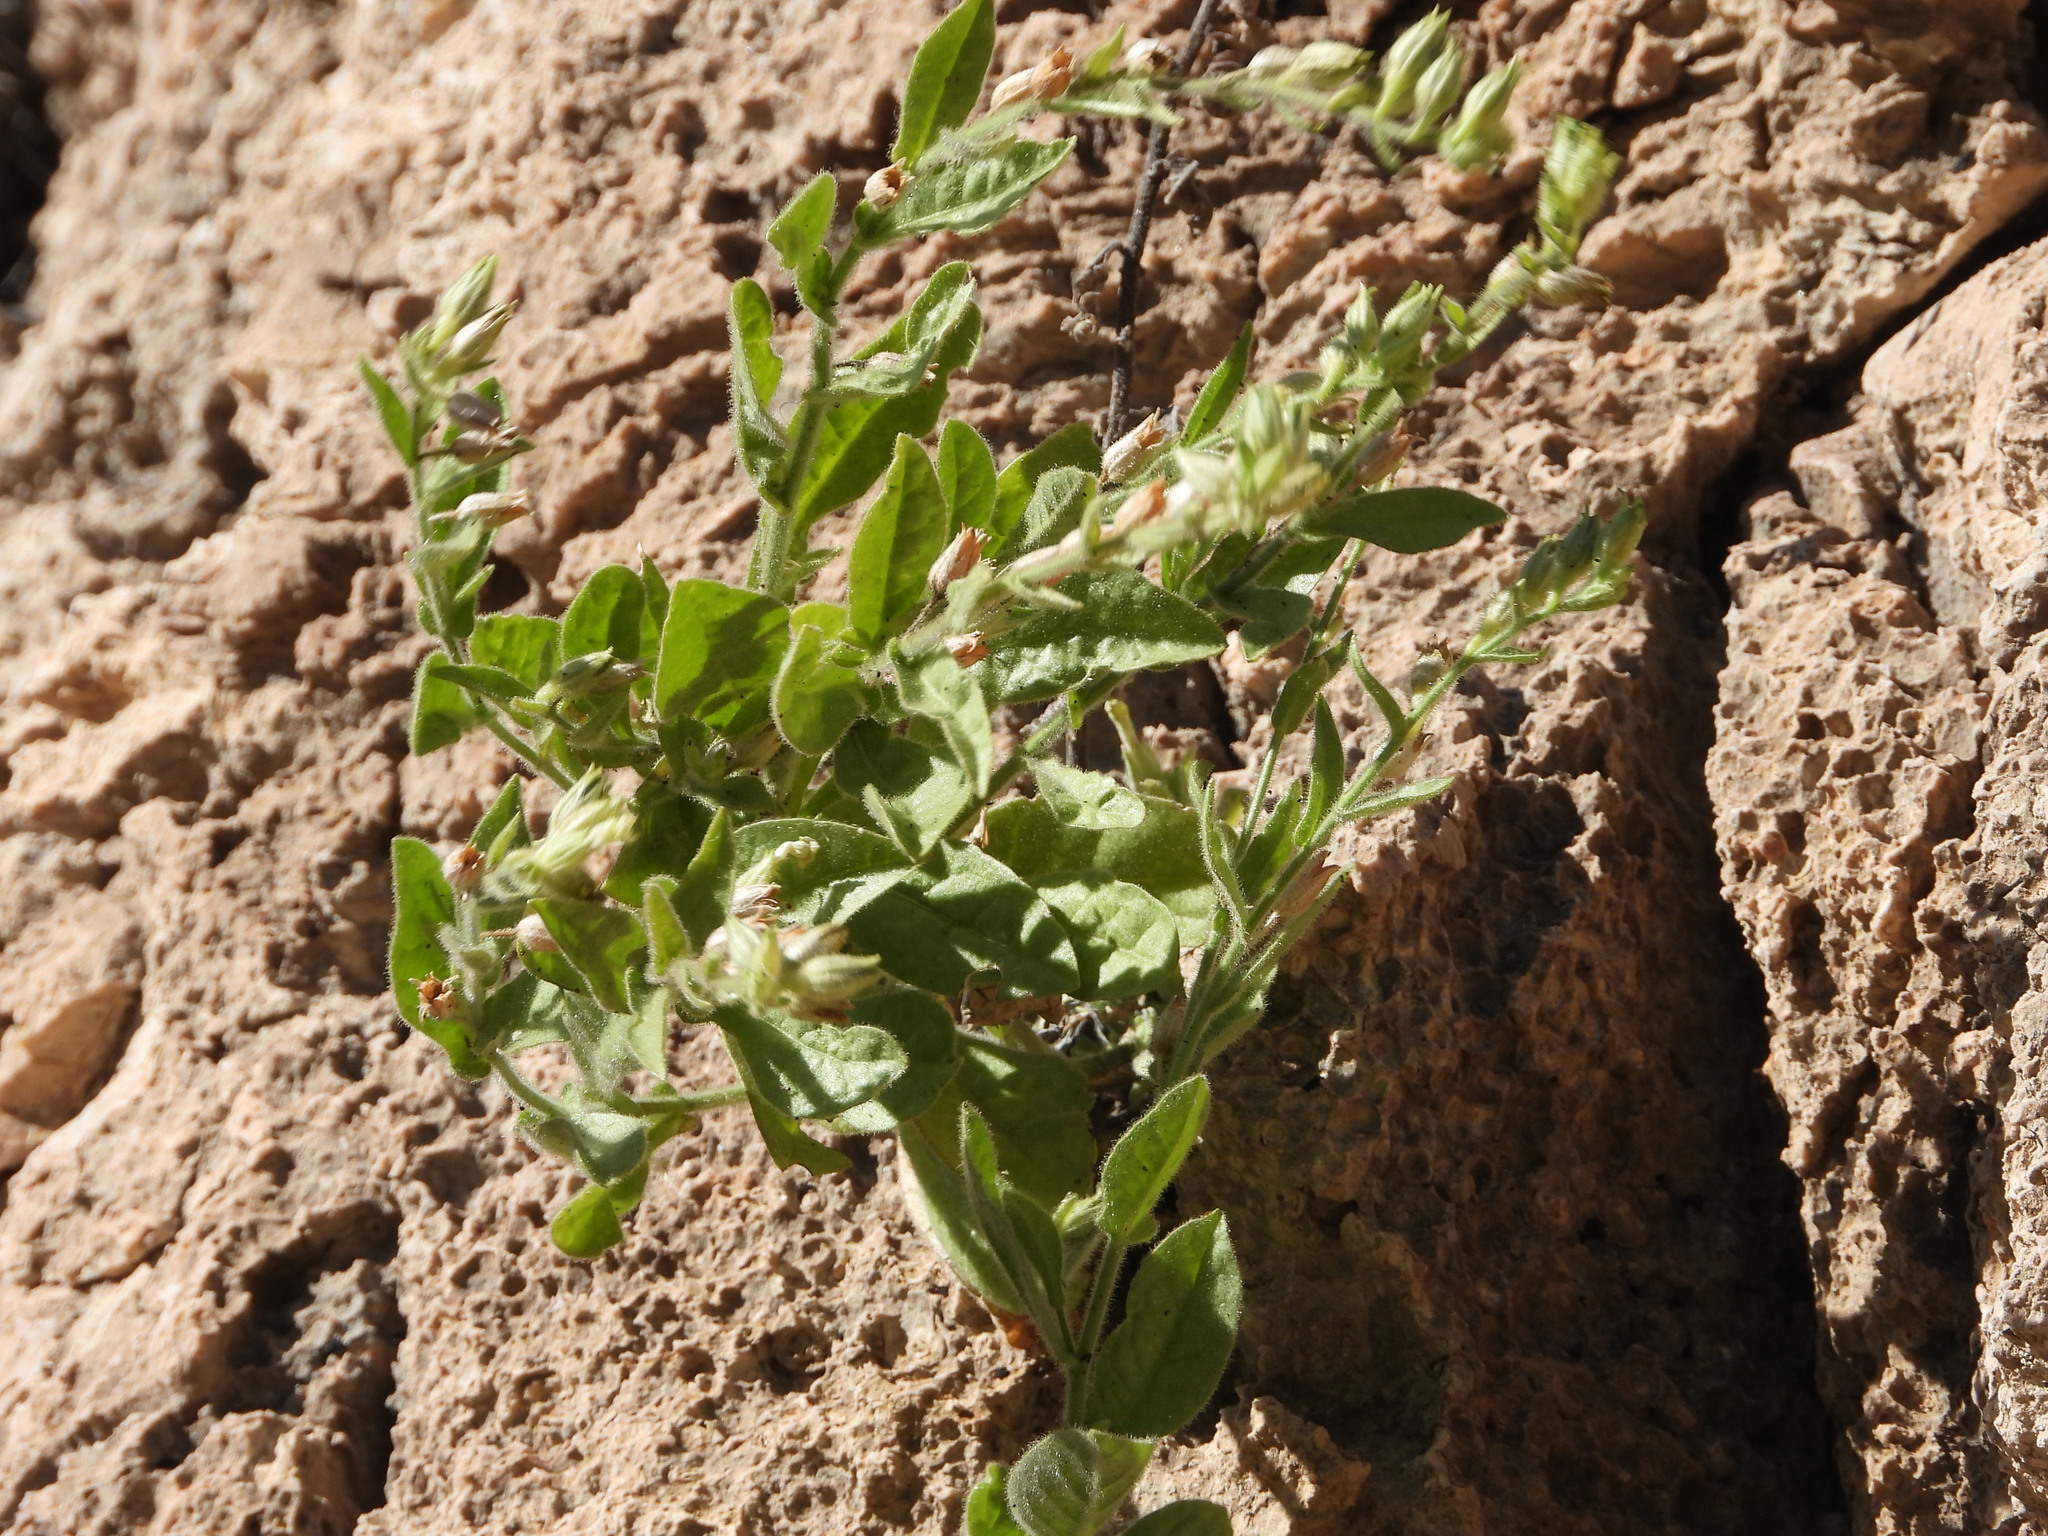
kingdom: Plantae
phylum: Tracheophyta
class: Magnoliopsida
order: Solanales
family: Solanaceae
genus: Nicotiana
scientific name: Nicotiana obtusifolia
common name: Desert tobacco
